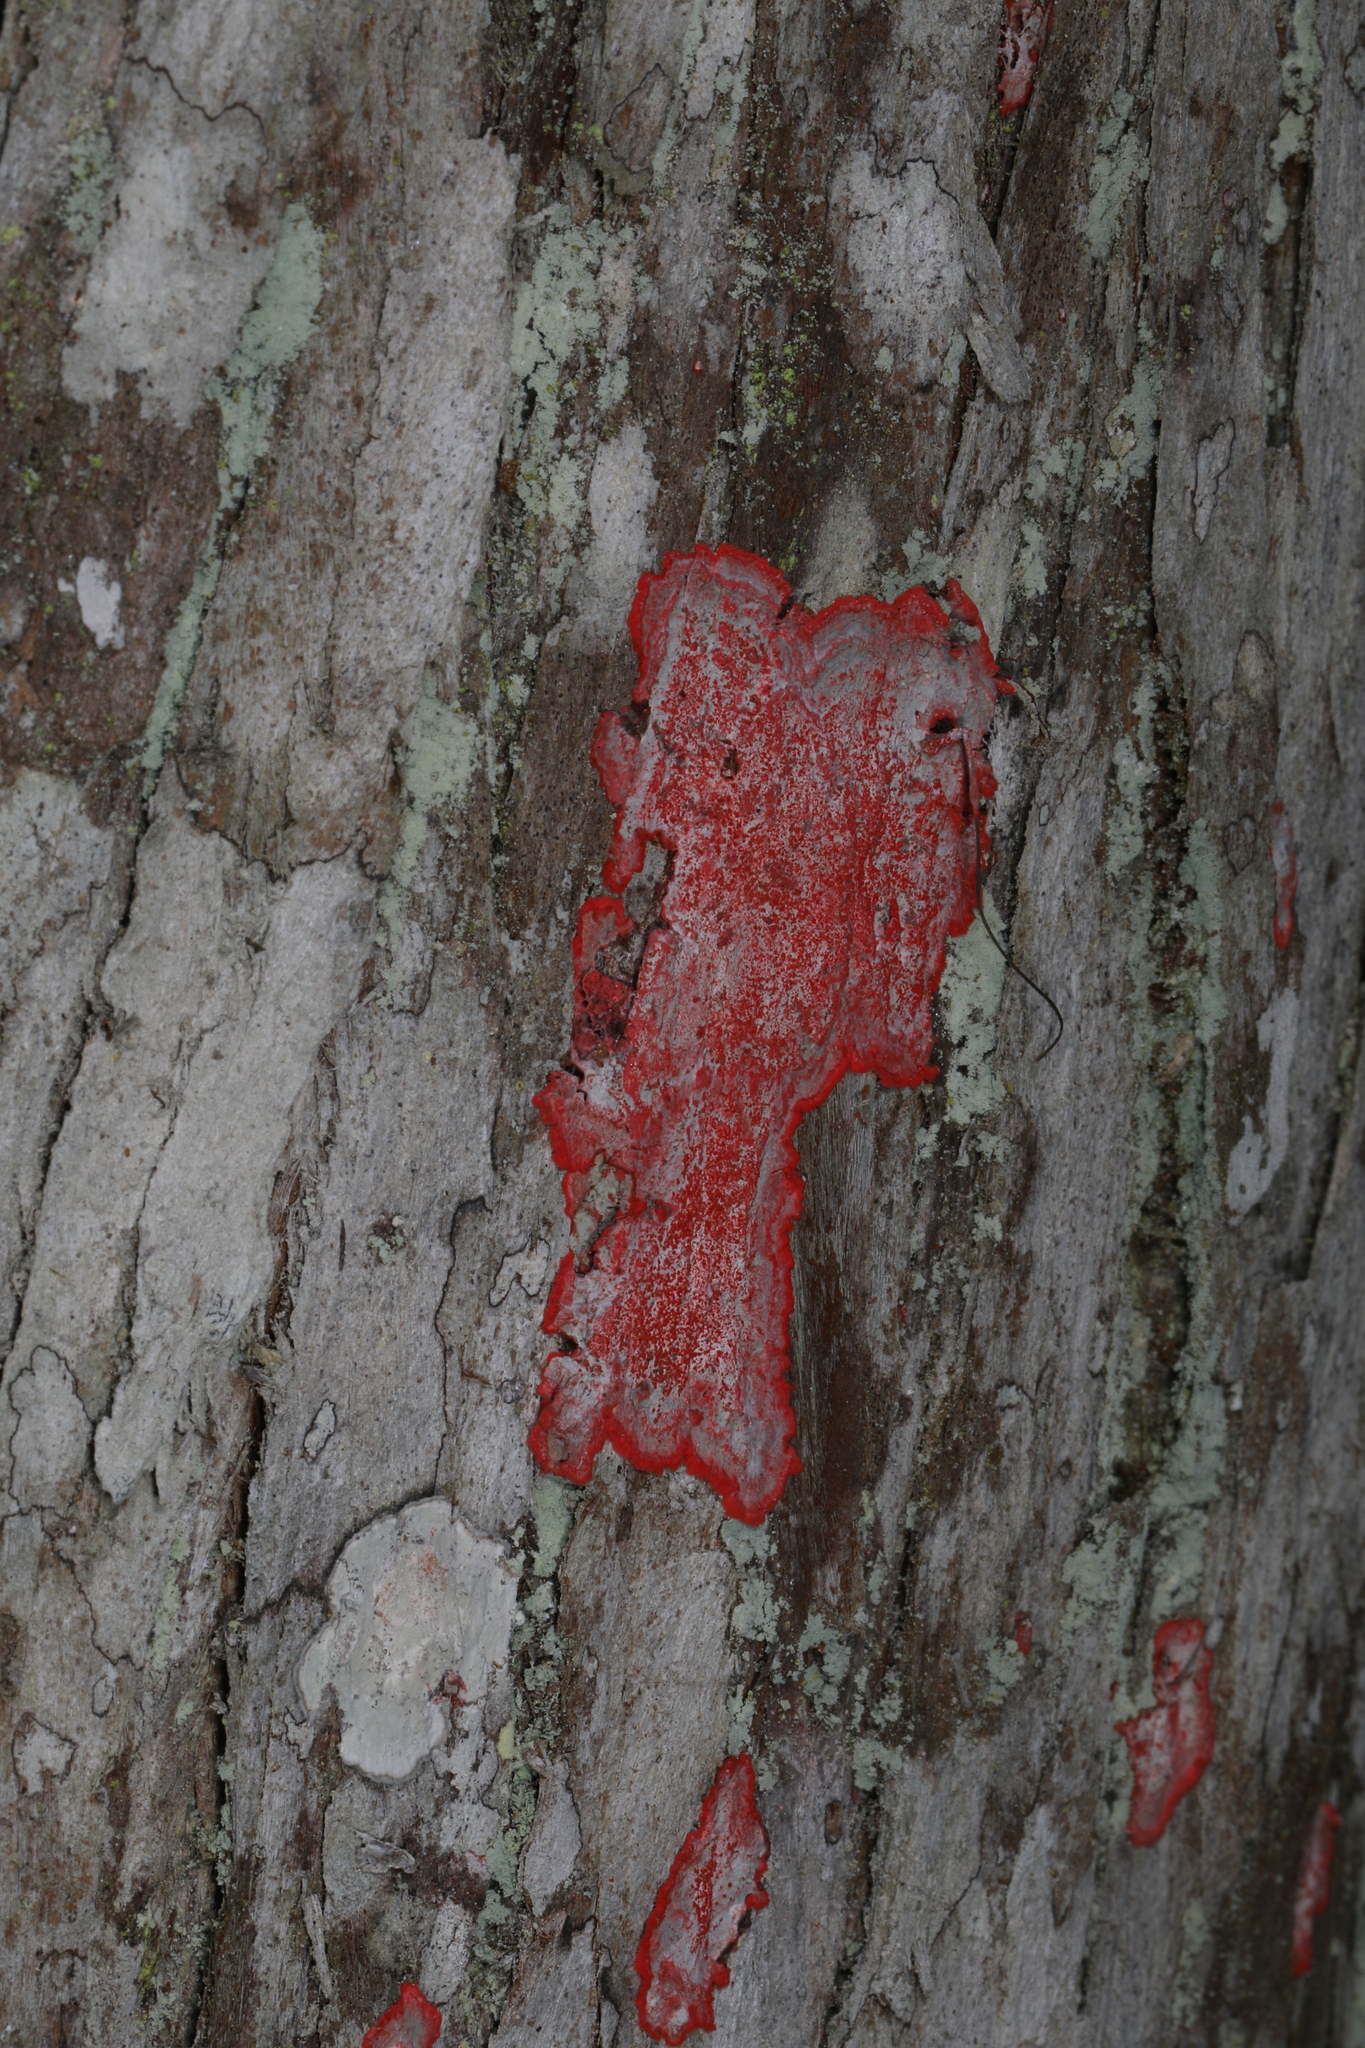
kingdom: Fungi
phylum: Ascomycota
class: Arthoniomycetes
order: Arthoniales
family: Arthoniaceae
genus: Herpothallon
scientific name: Herpothallon rubrocinctum
